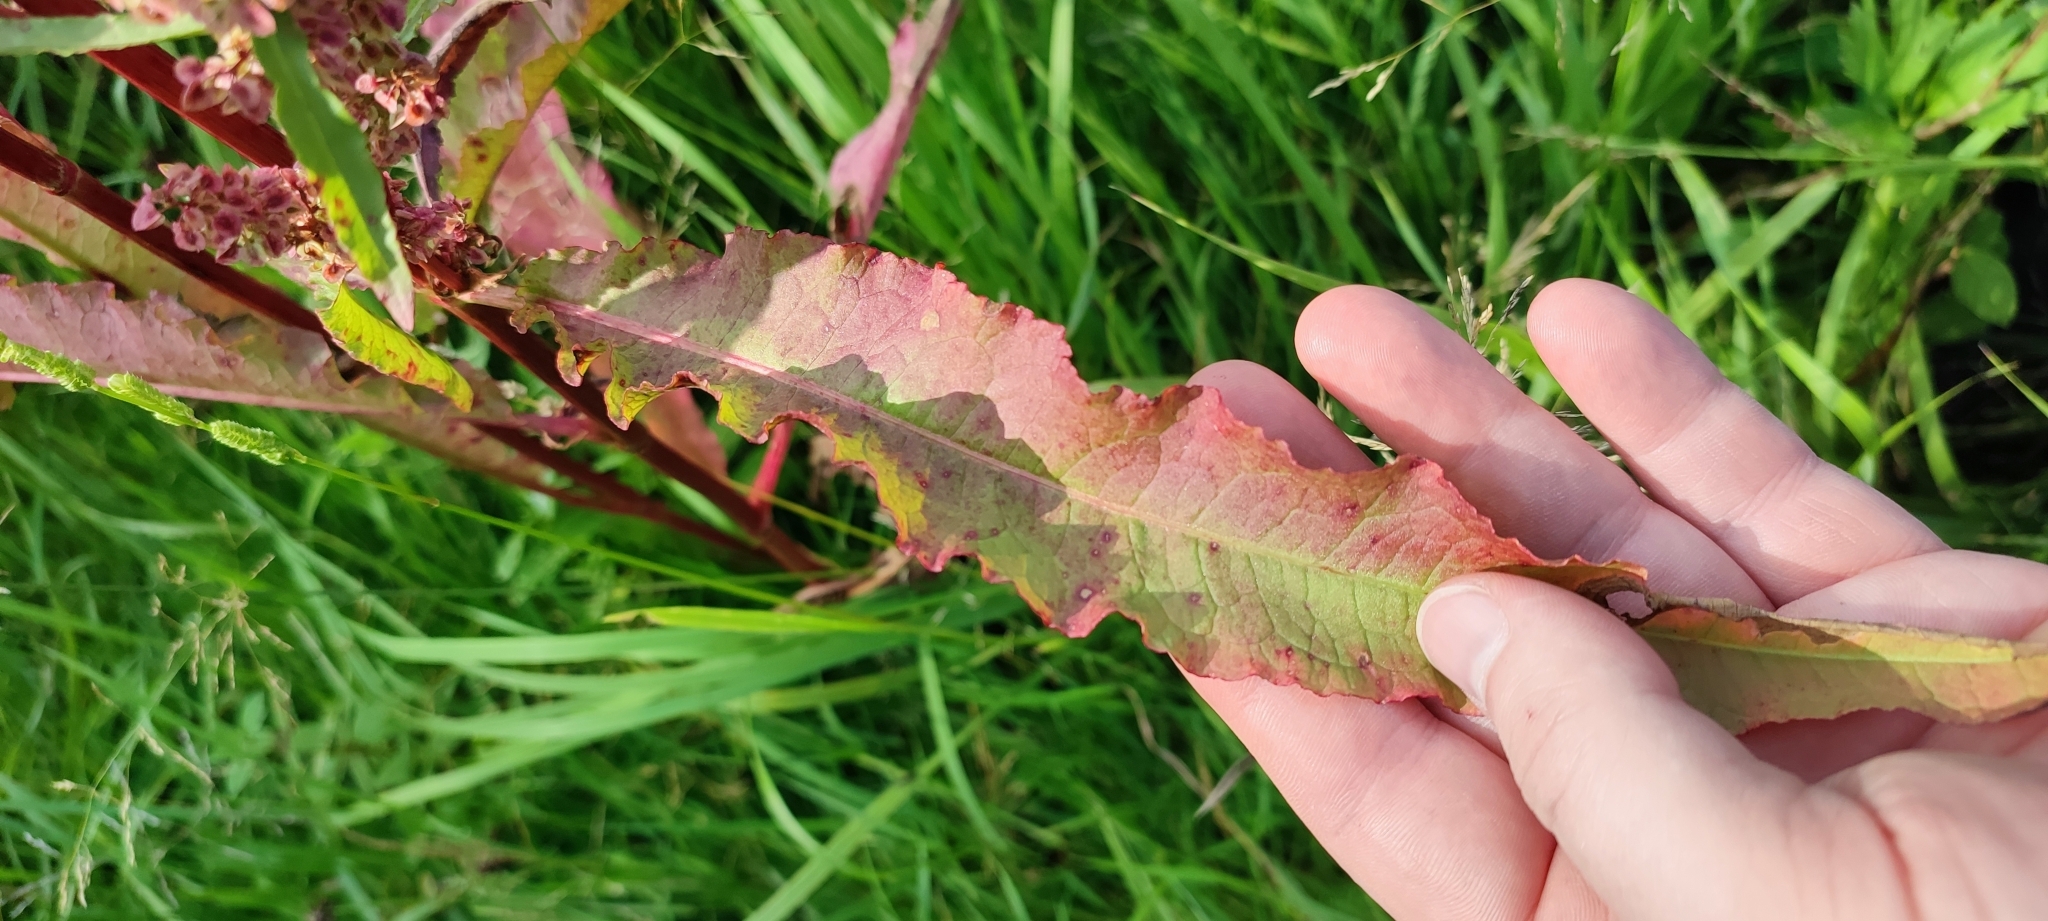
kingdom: Plantae
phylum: Tracheophyta
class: Magnoliopsida
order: Caryophyllales
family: Polygonaceae
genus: Rumex
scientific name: Rumex pseudonatronatus
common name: Field dock
